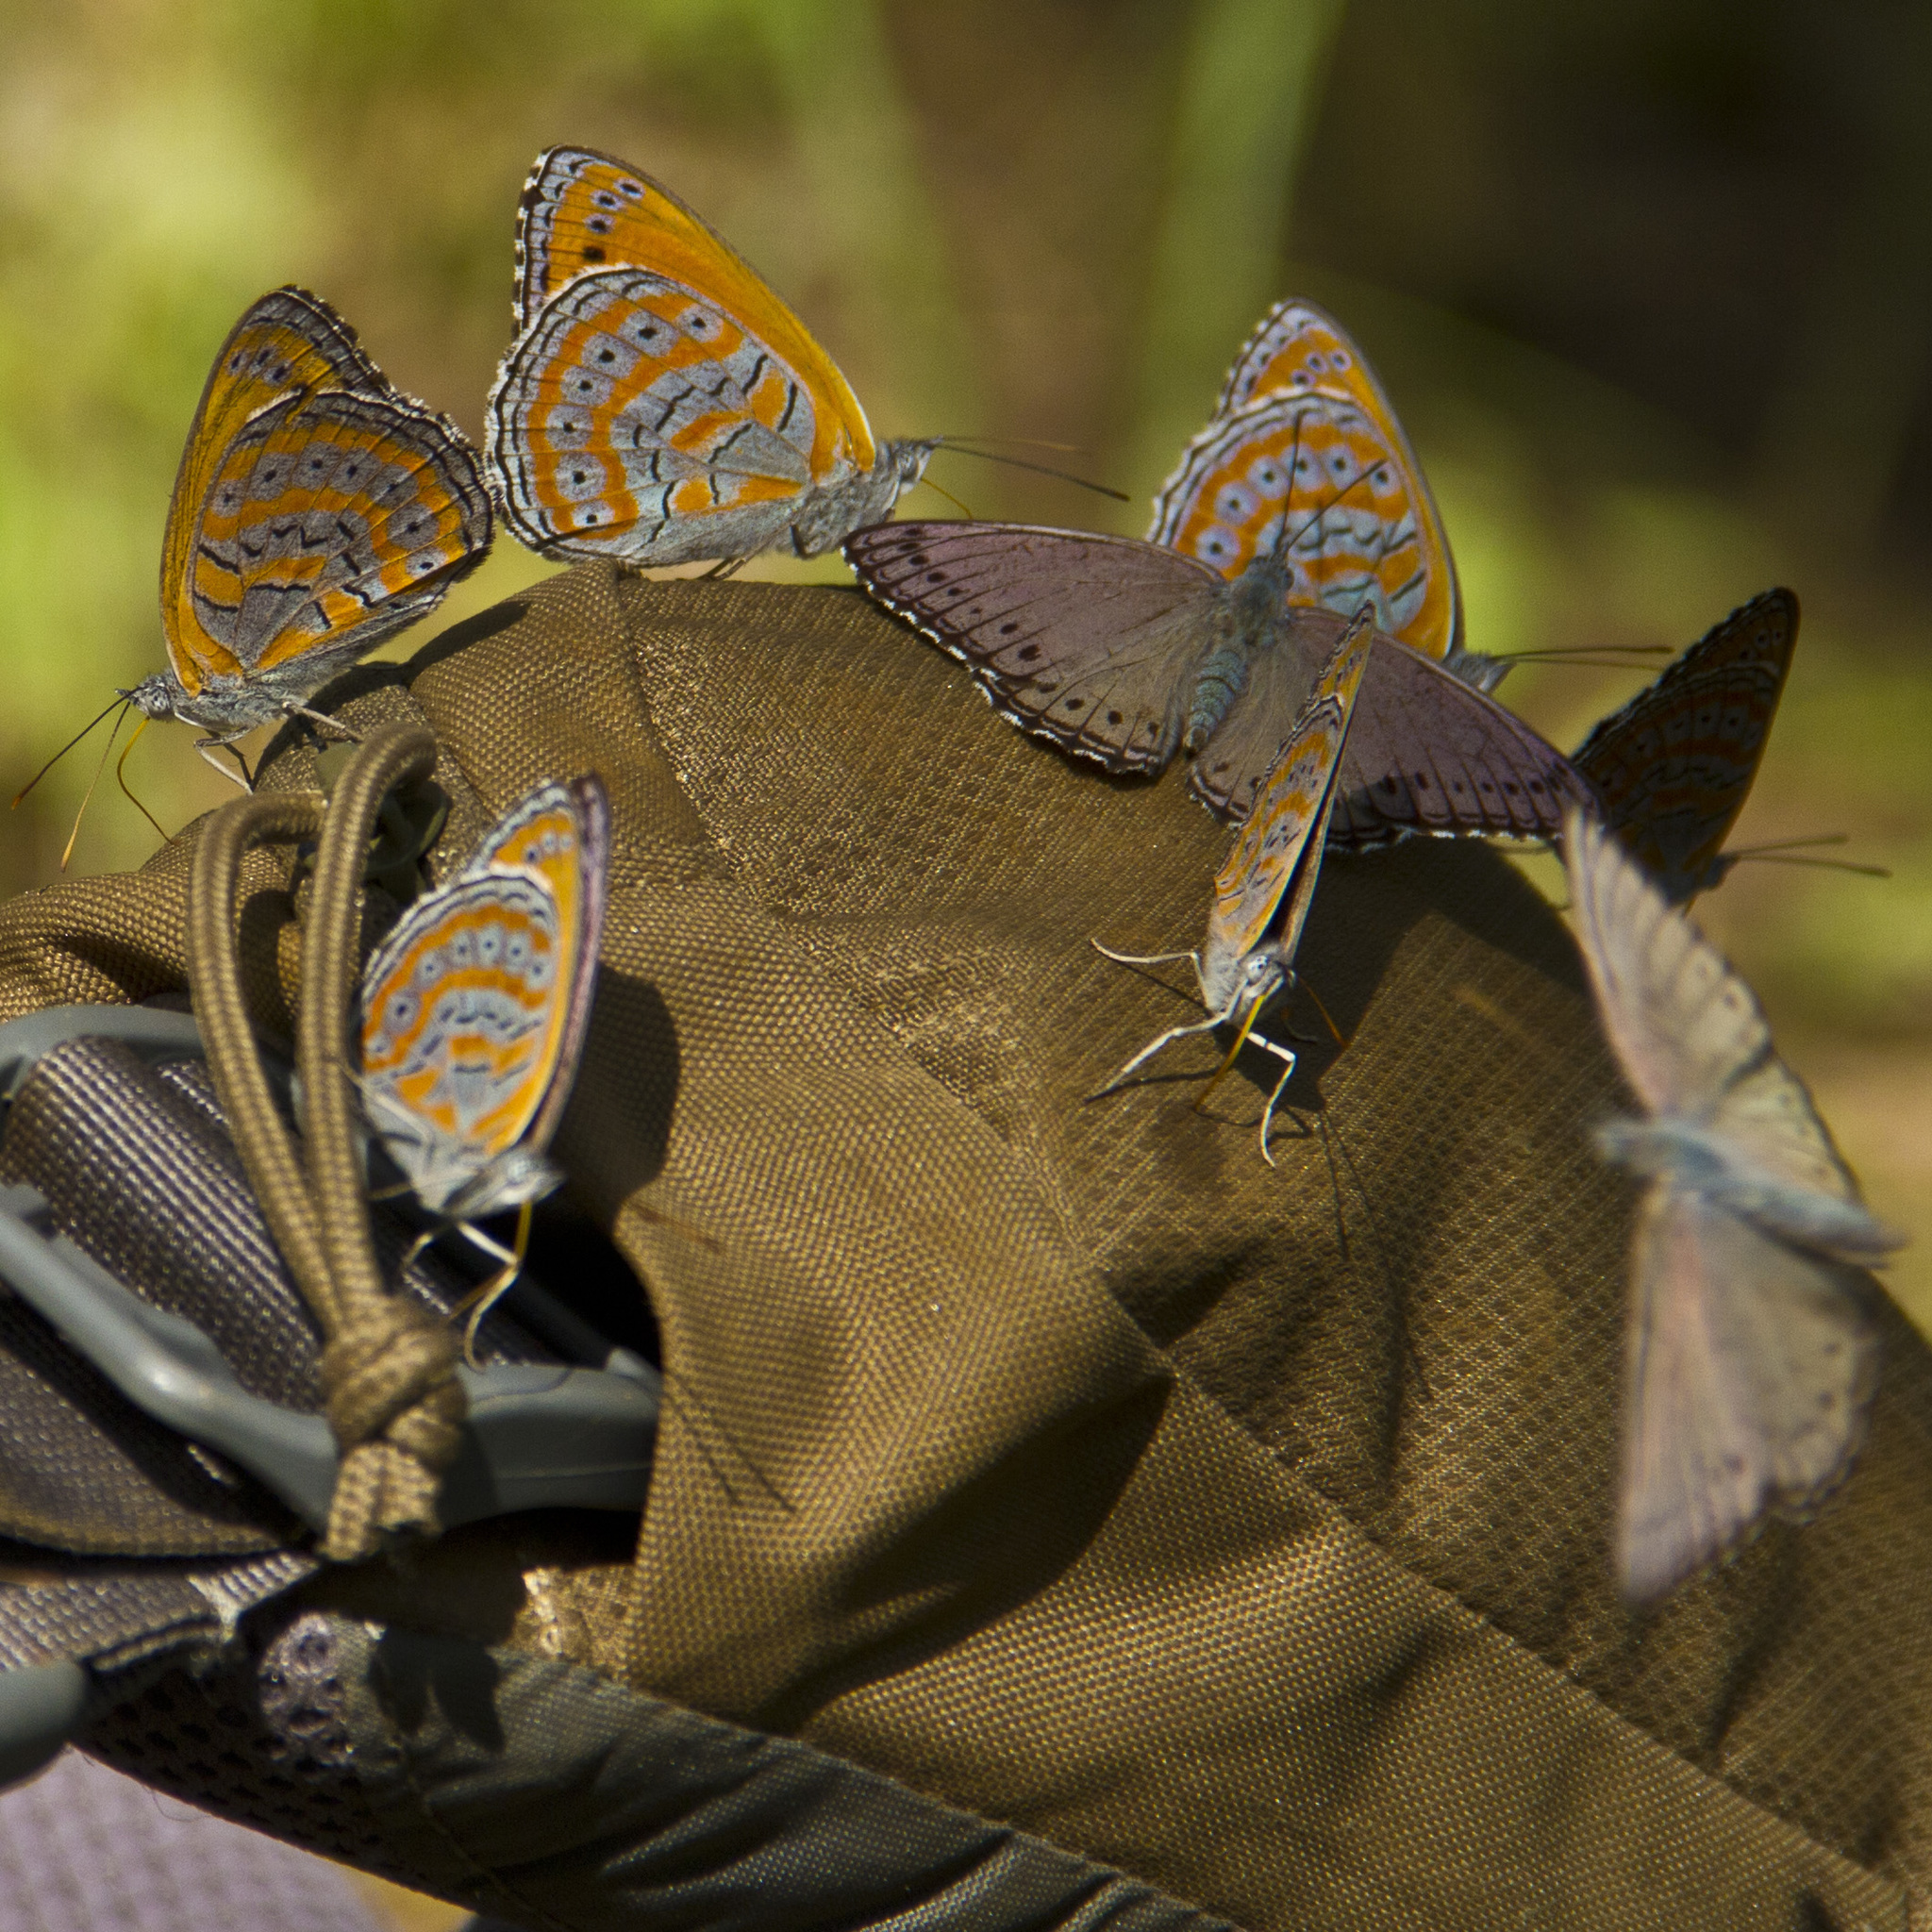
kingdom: Animalia
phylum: Arthropoda
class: Insecta
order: Lepidoptera
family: Nymphalidae
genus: Sevenia
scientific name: Sevenia
